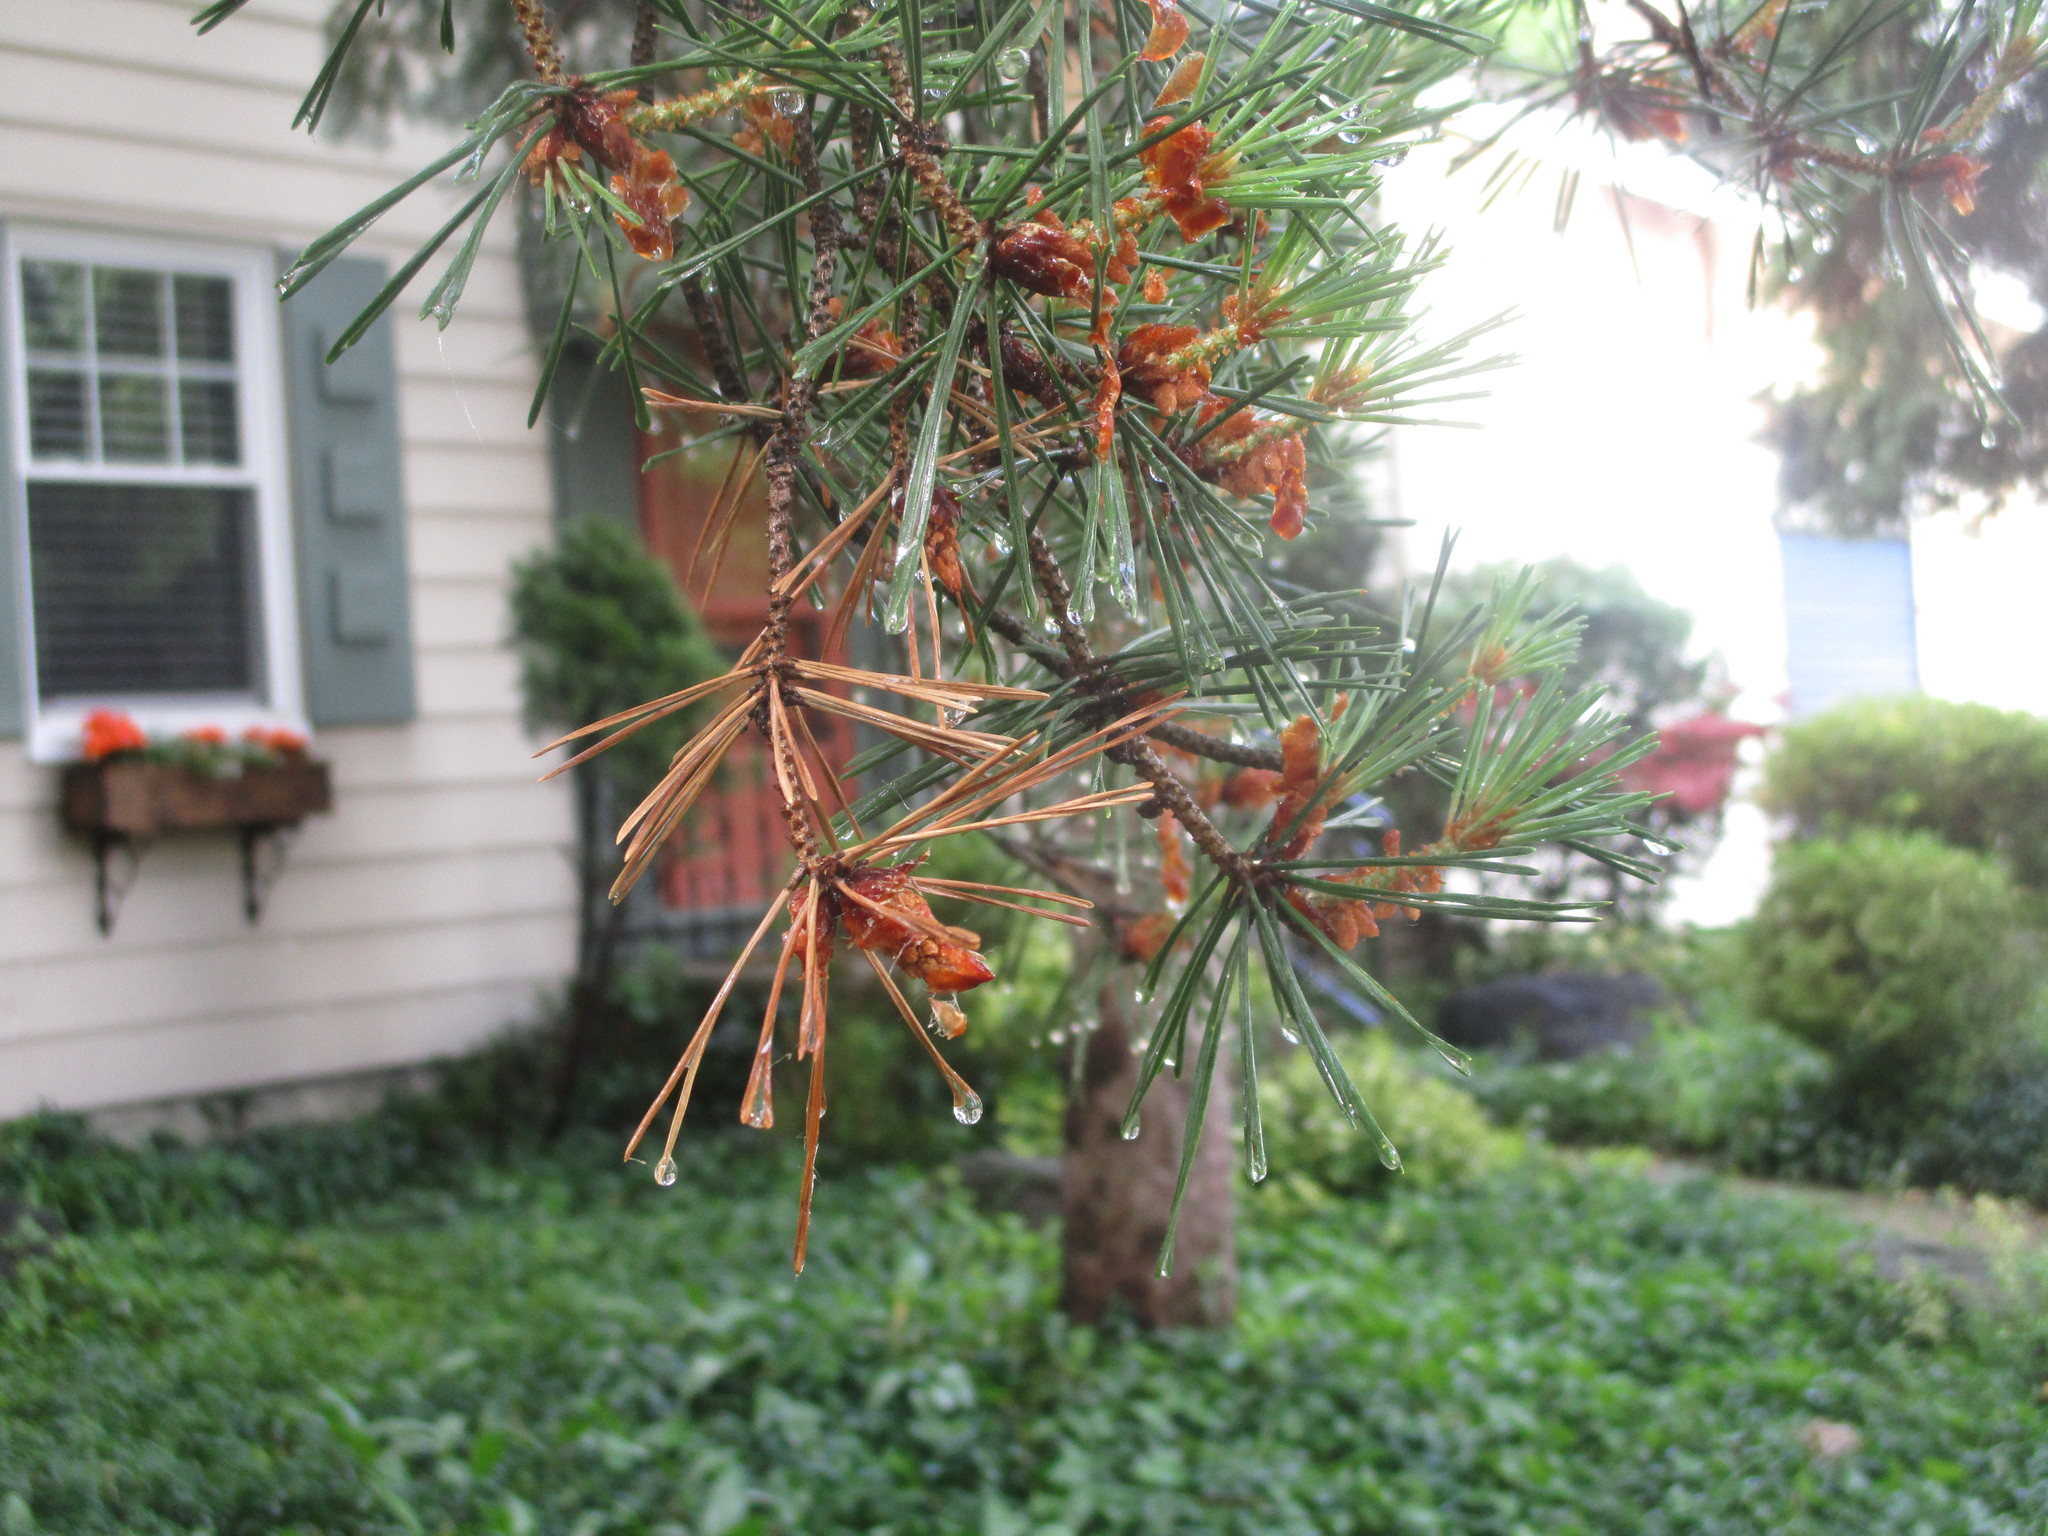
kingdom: Plantae
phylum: Tracheophyta
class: Pinopsida
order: Pinales
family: Pinaceae
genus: Pinus
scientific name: Pinus sylvestris
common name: Scots pine
